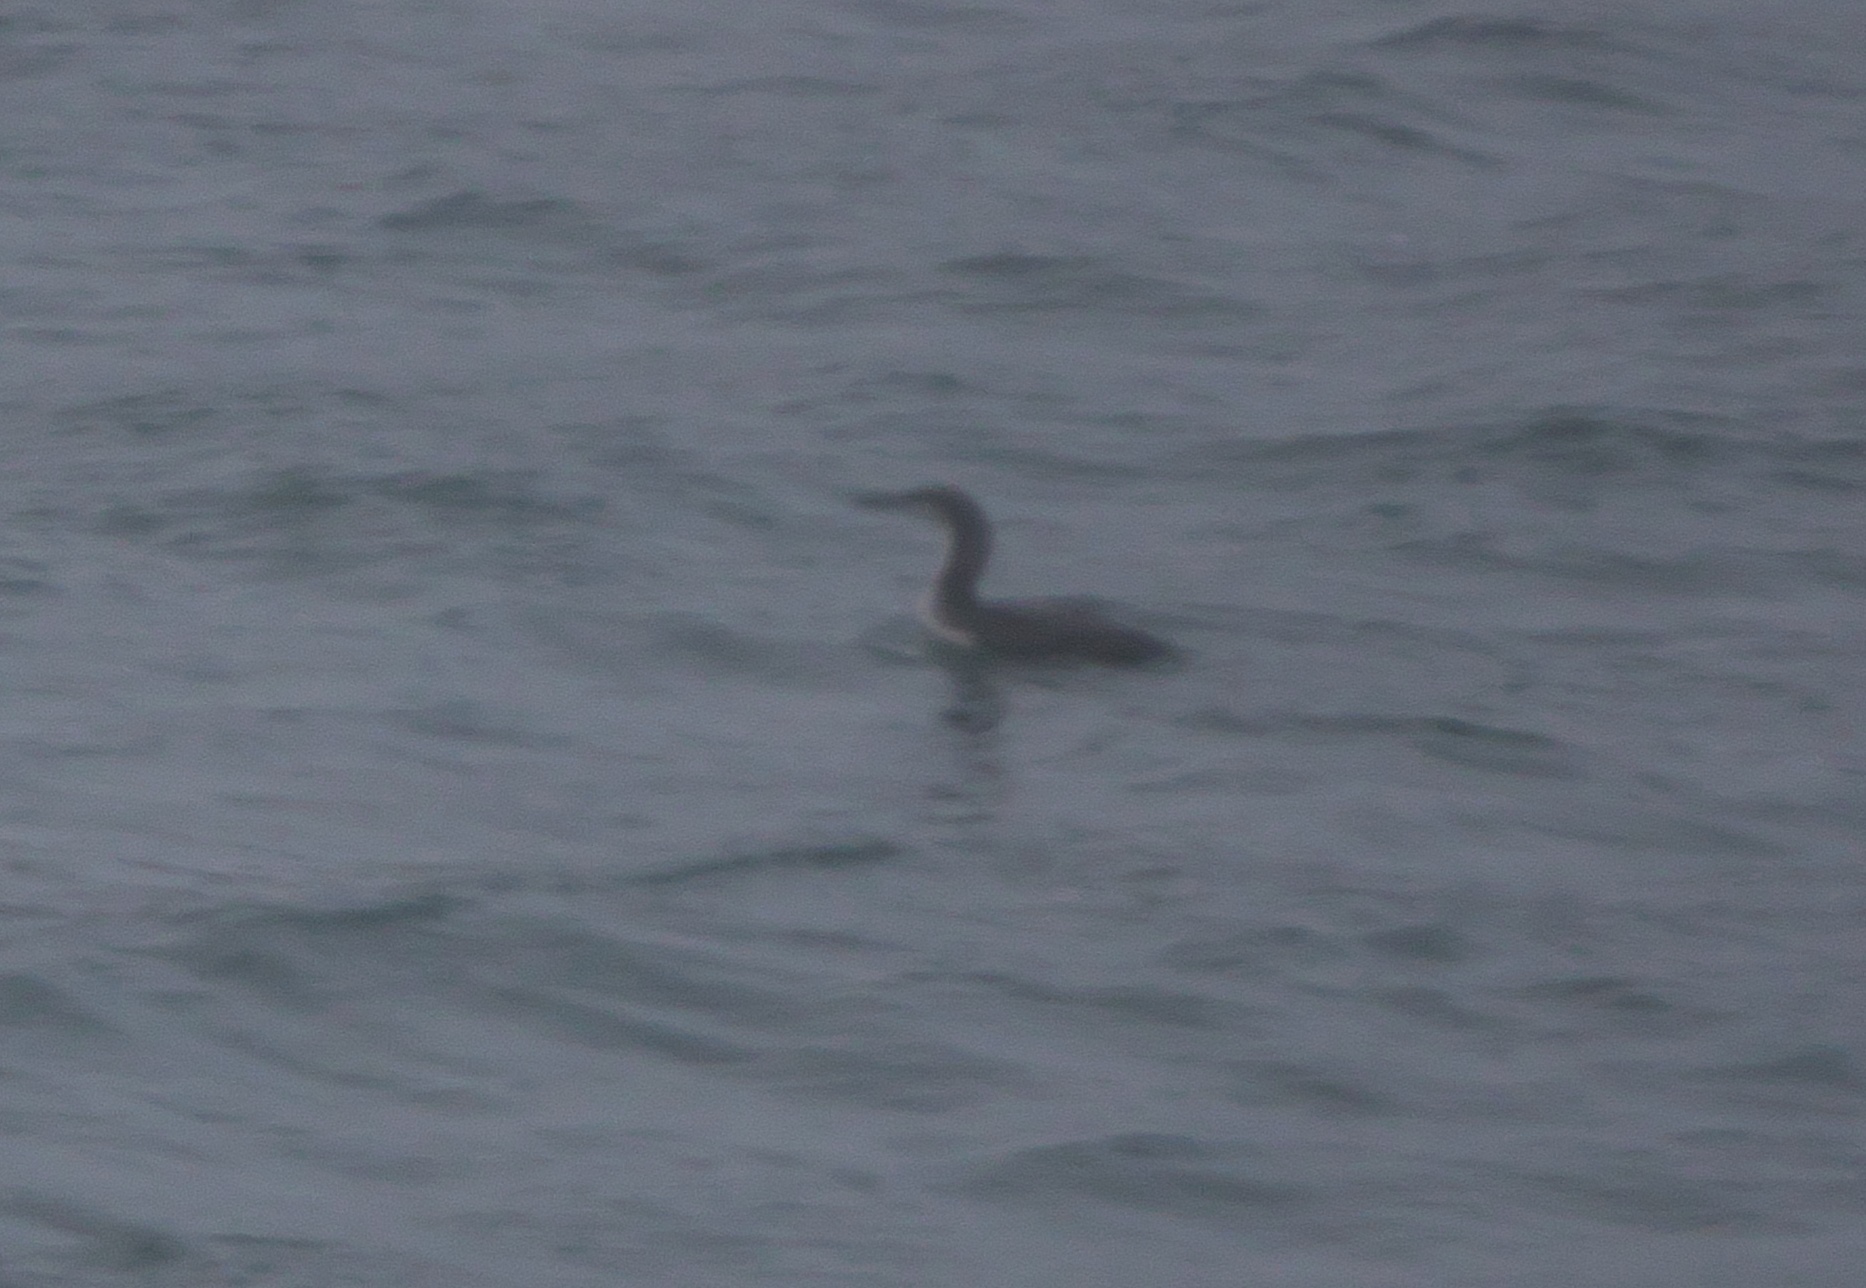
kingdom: Animalia
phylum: Chordata
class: Aves
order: Gaviiformes
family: Gaviidae
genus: Gavia
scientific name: Gavia stellata
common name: Red-throated loon
